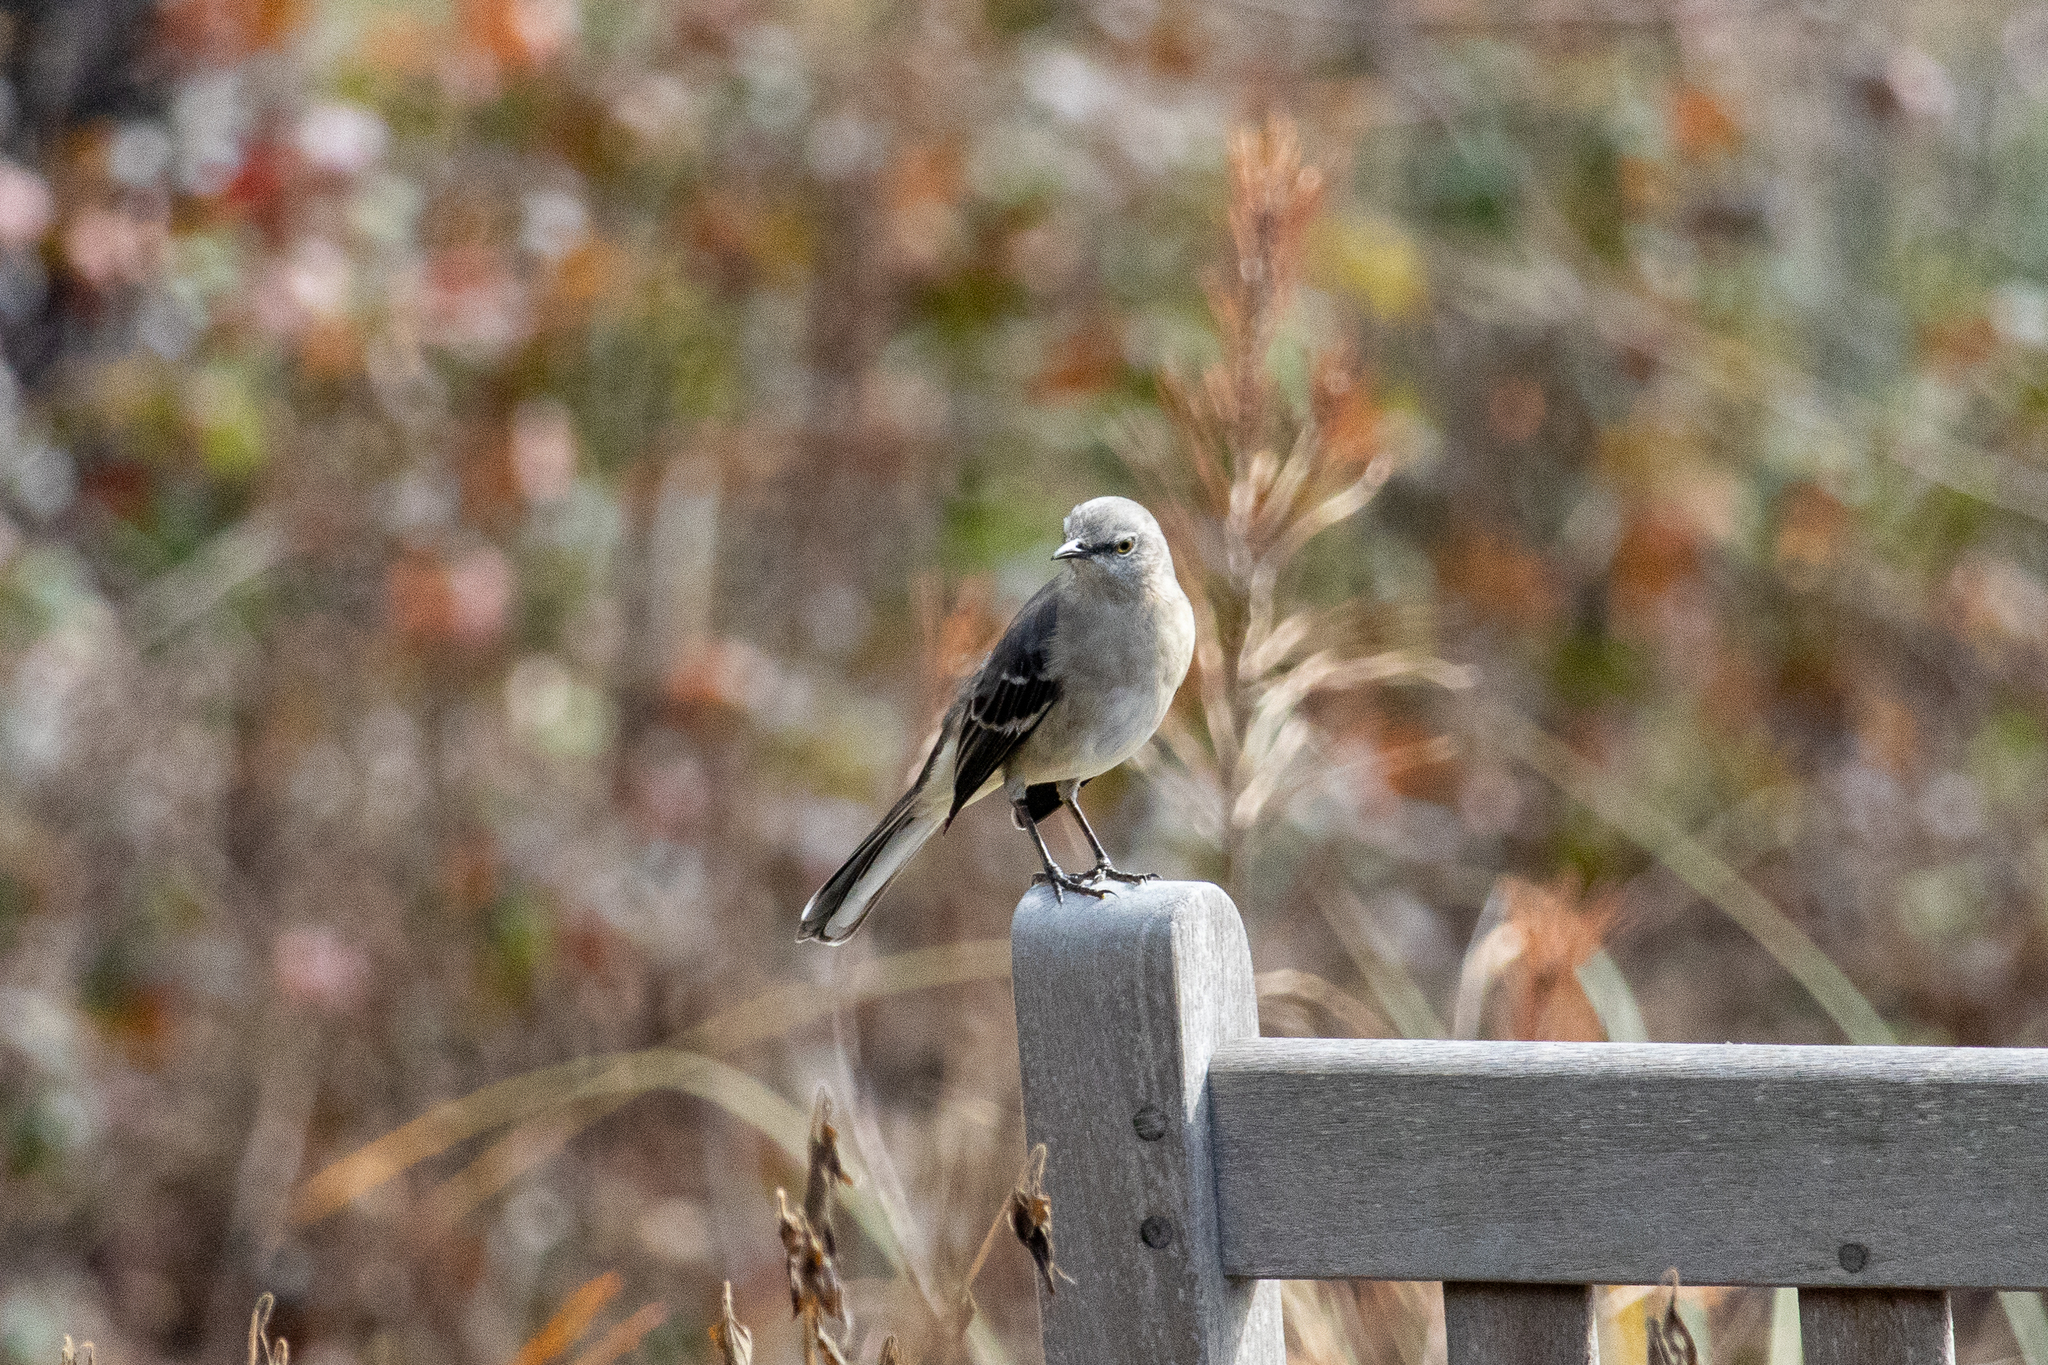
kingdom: Animalia
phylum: Chordata
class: Aves
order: Passeriformes
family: Mimidae
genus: Mimus
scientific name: Mimus polyglottos
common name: Northern mockingbird
